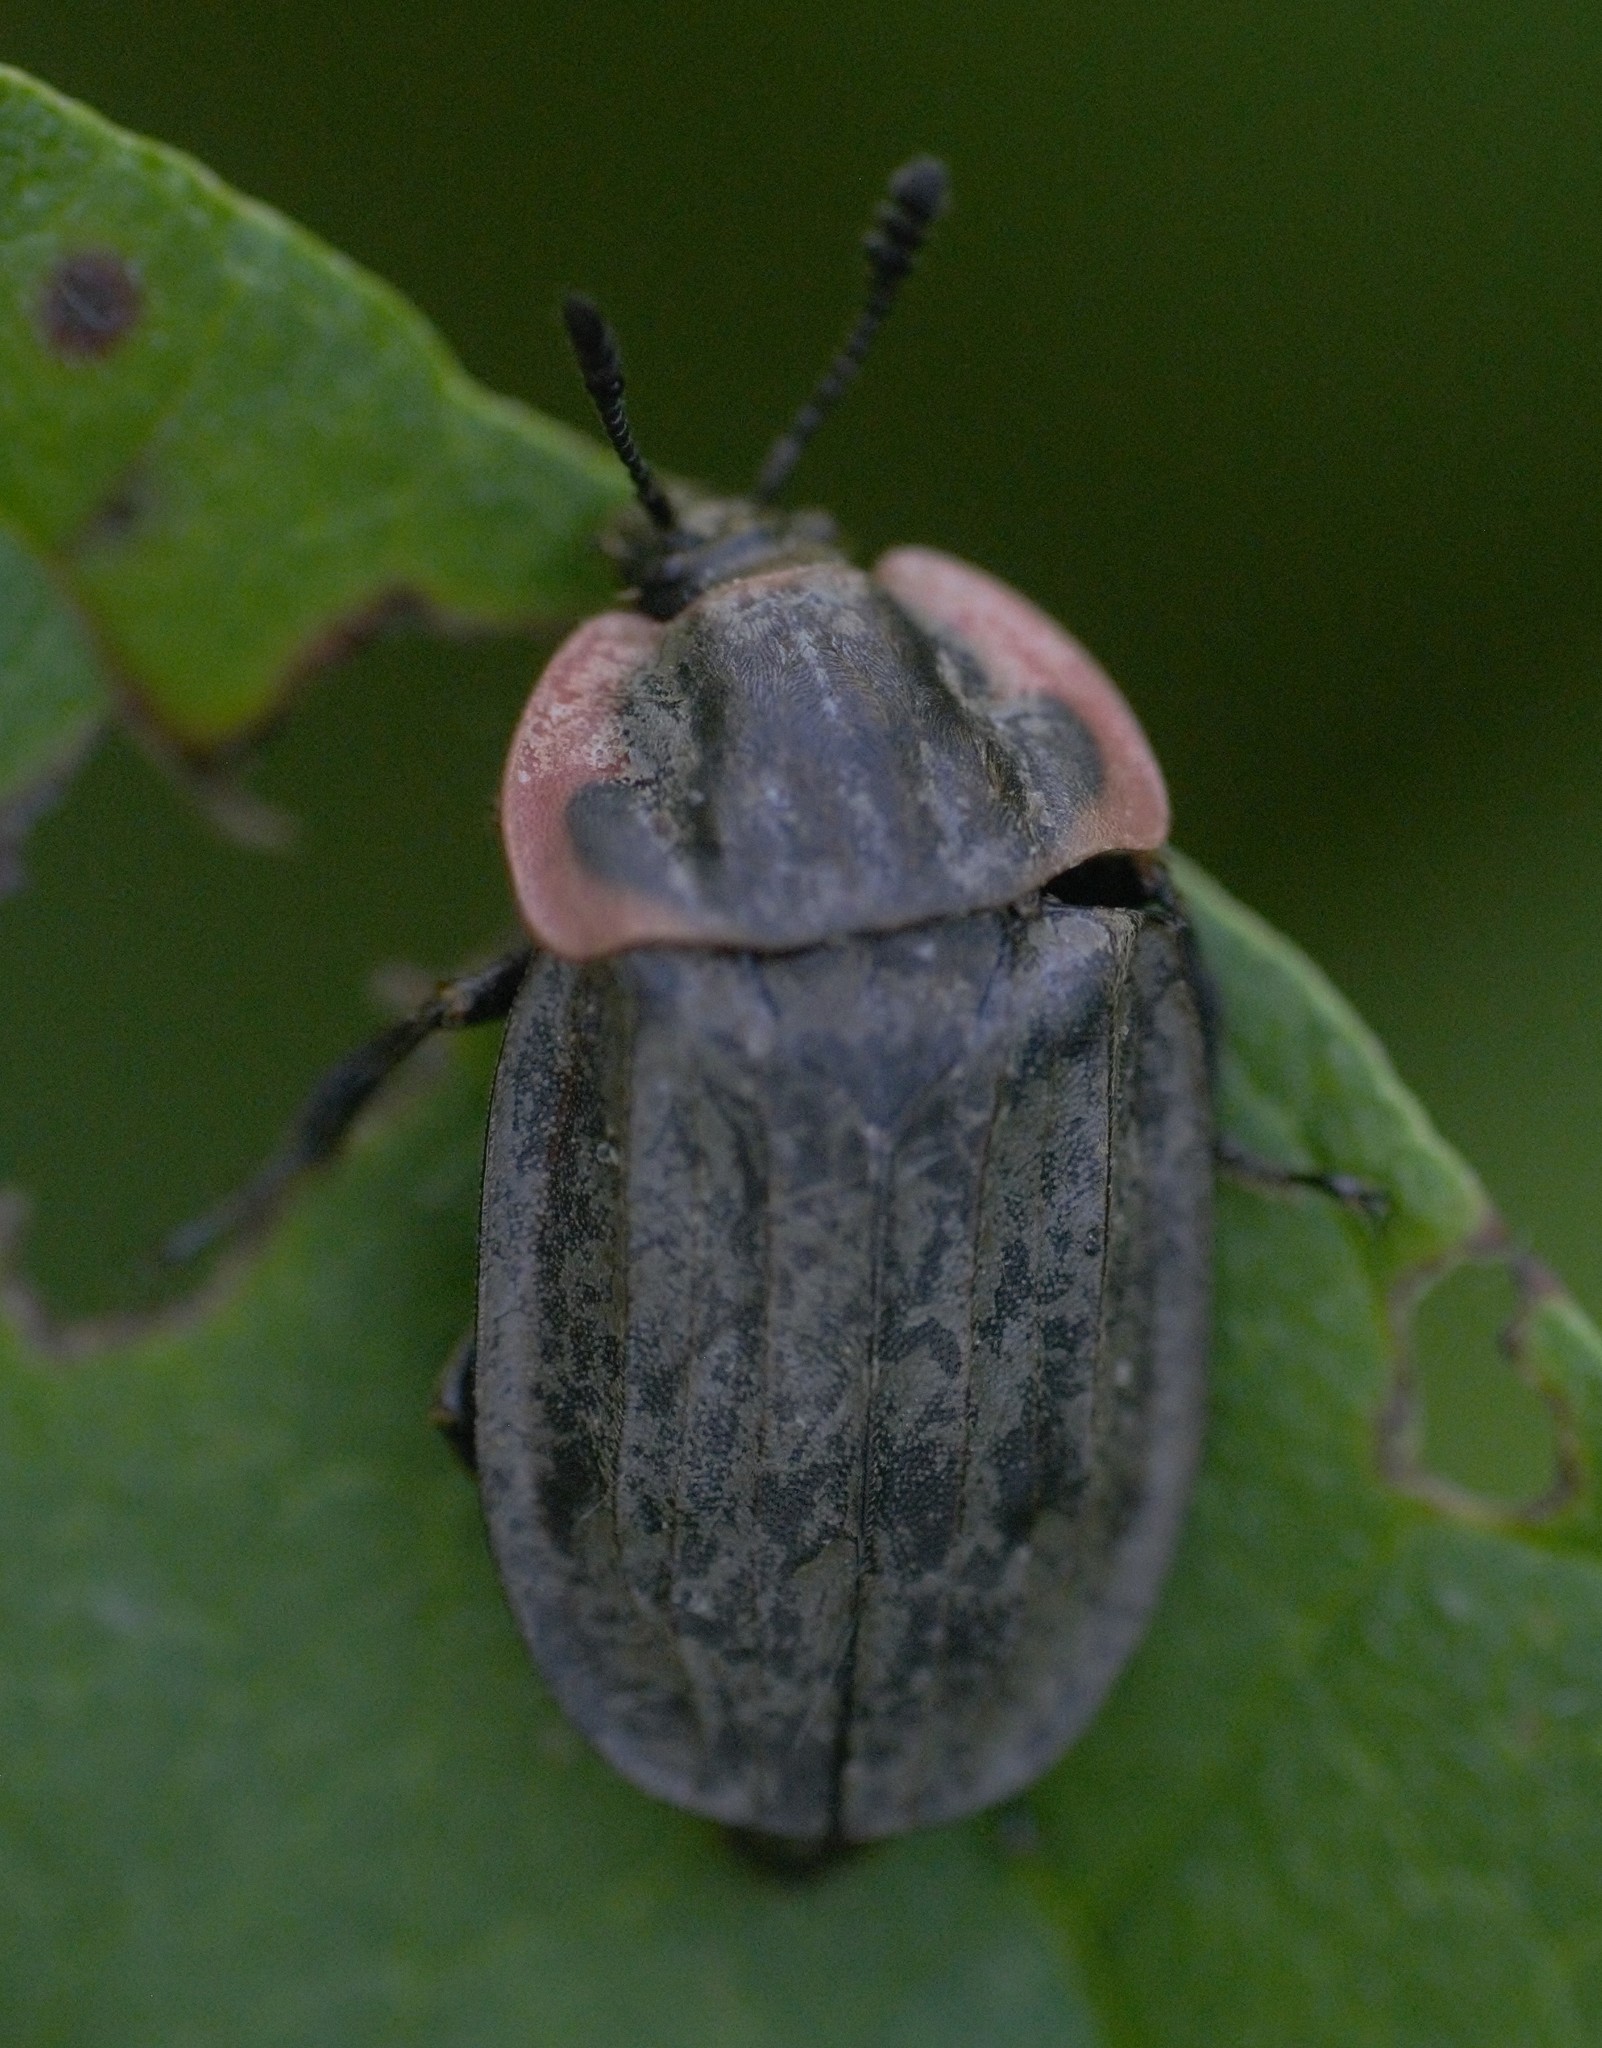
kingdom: Animalia
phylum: Arthropoda
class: Insecta
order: Coleoptera
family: Staphylinidae
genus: Oiceoptoma
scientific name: Oiceoptoma noveboracense
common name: Margined carrion beetle
